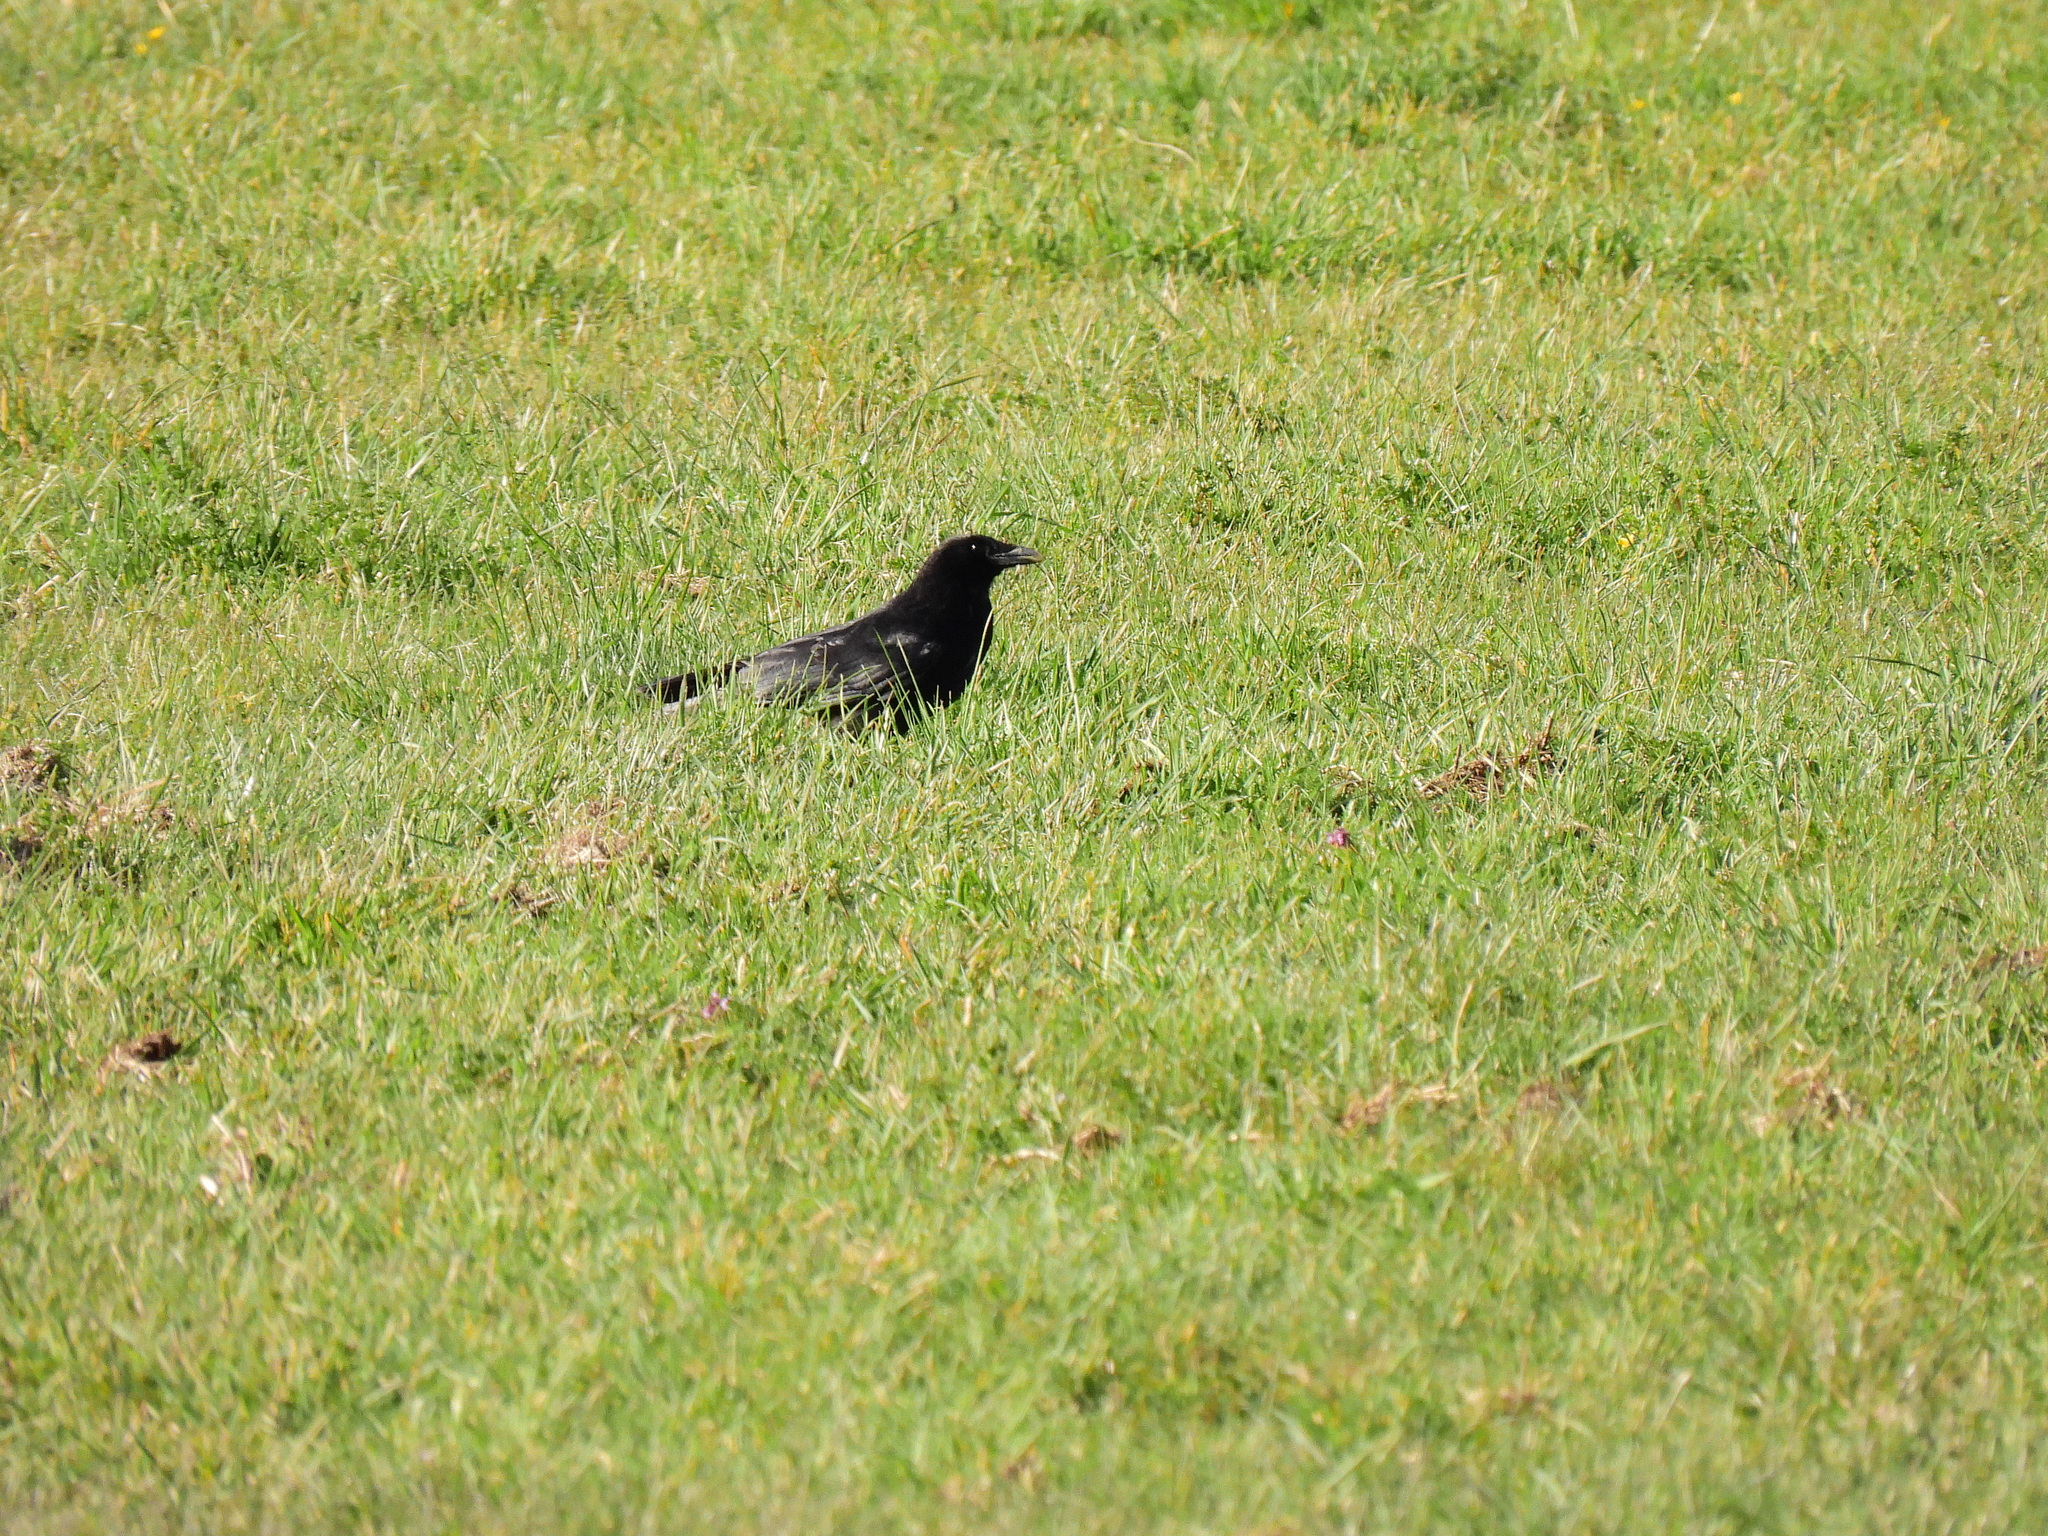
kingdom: Animalia
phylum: Chordata
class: Aves
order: Passeriformes
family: Corvidae
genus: Corvus
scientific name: Corvus corone
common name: Carrion crow
